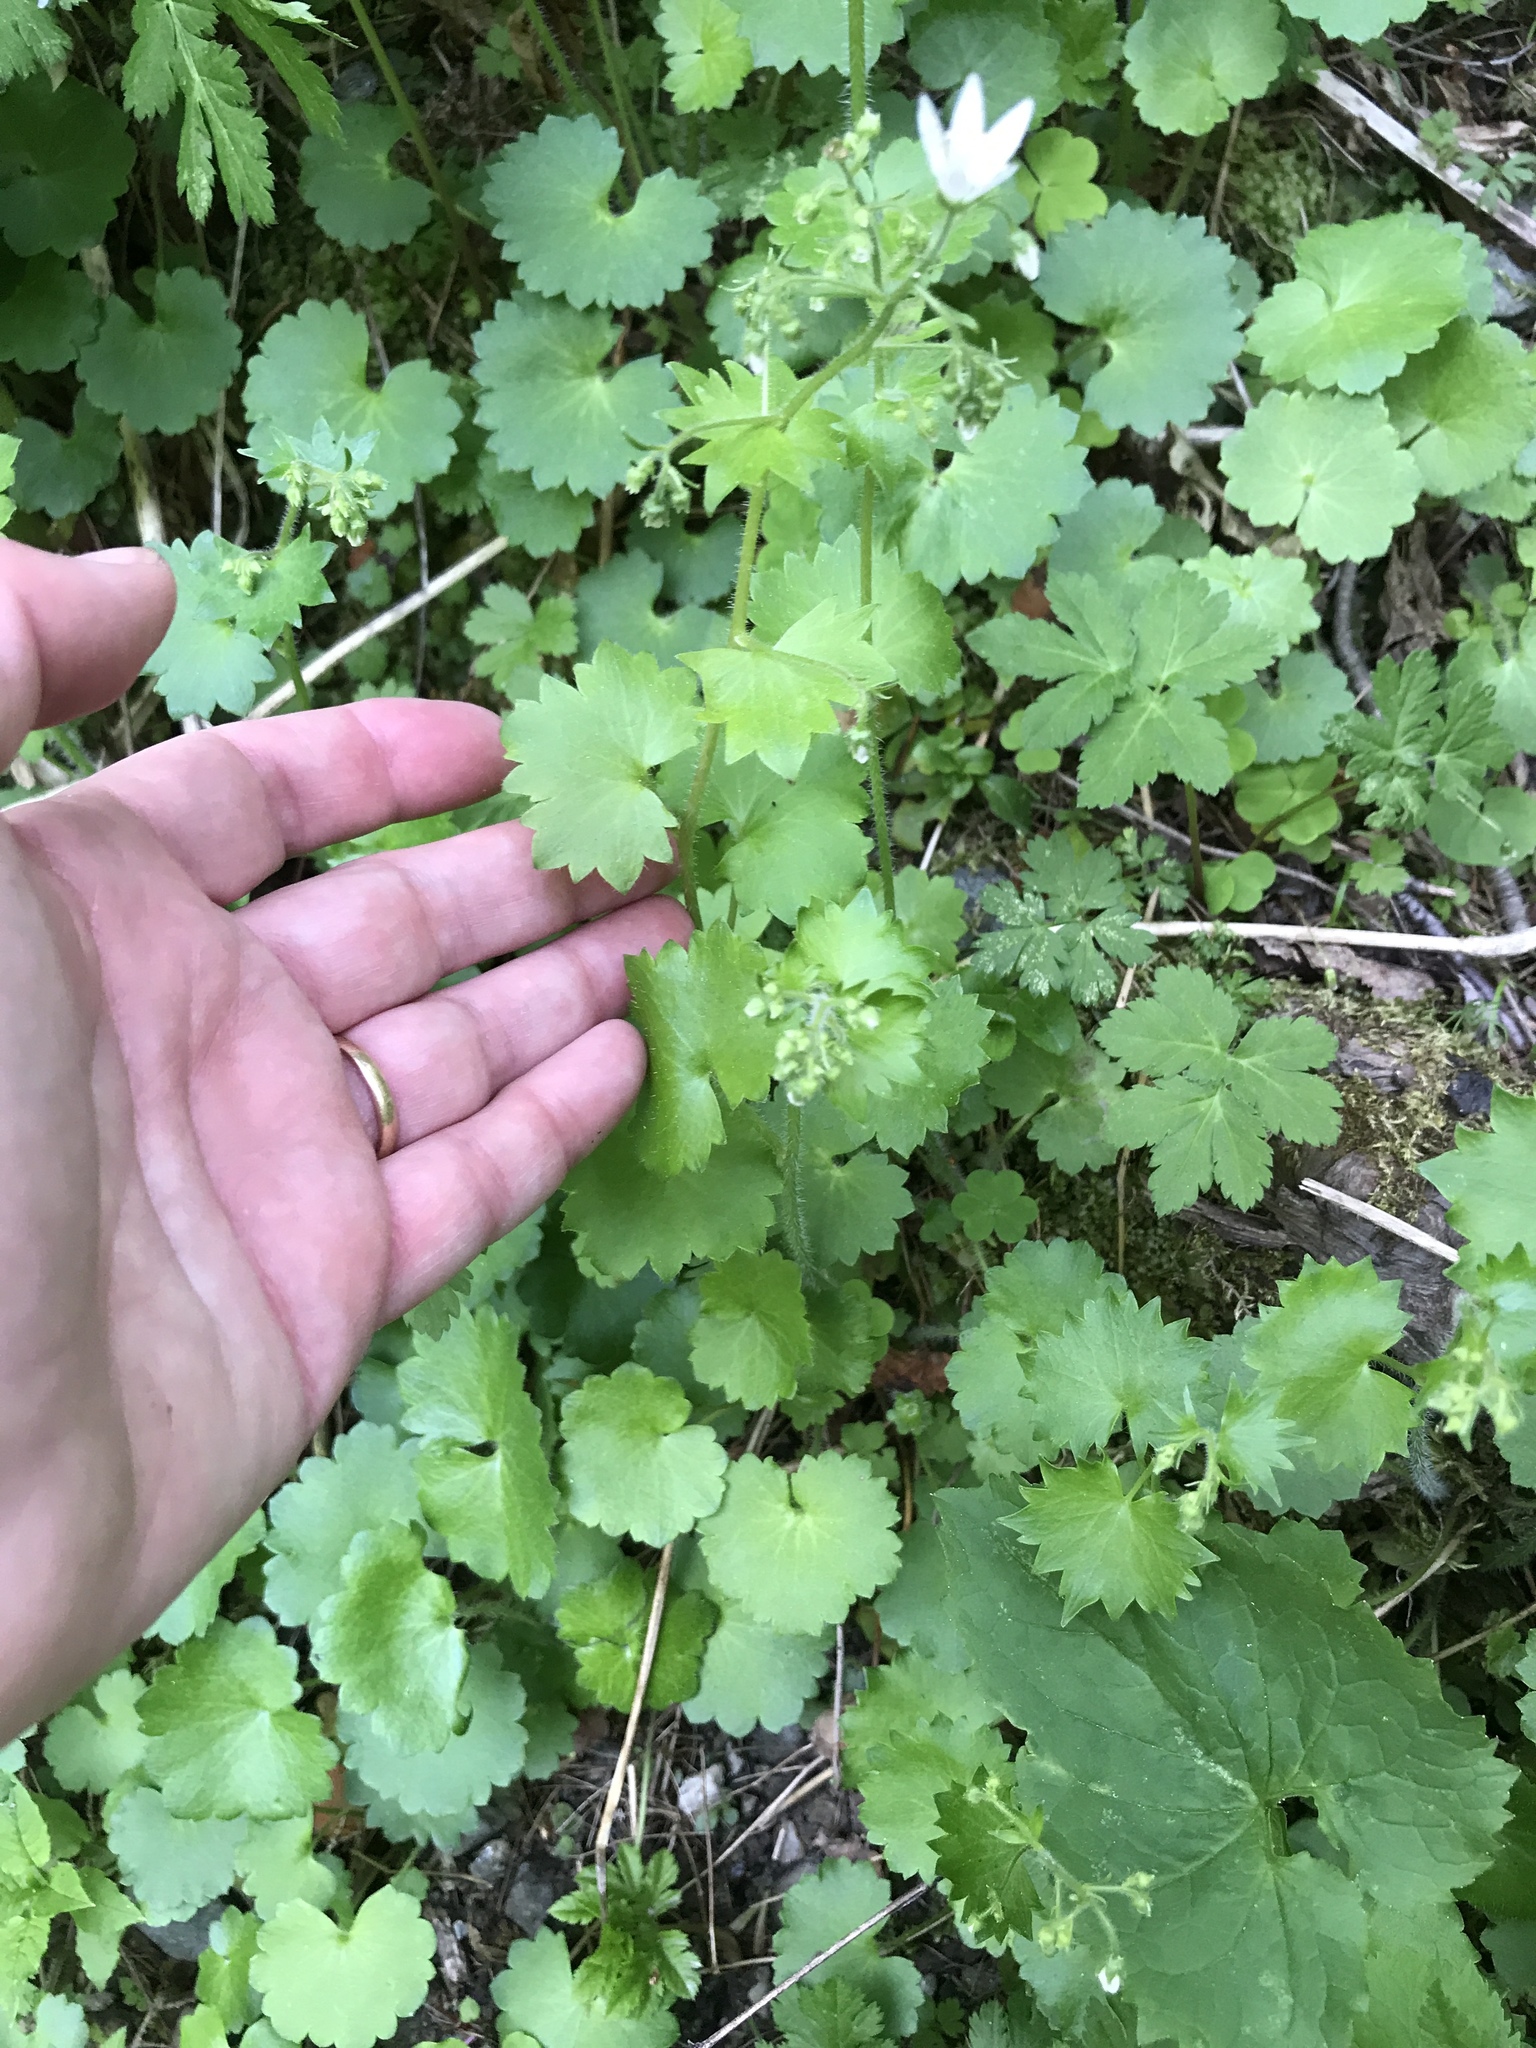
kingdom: Plantae
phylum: Tracheophyta
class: Magnoliopsida
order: Saxifragales
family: Saxifragaceae
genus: Saxifraga
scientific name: Saxifraga rotundifolia
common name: Round-leaved saxifrage
